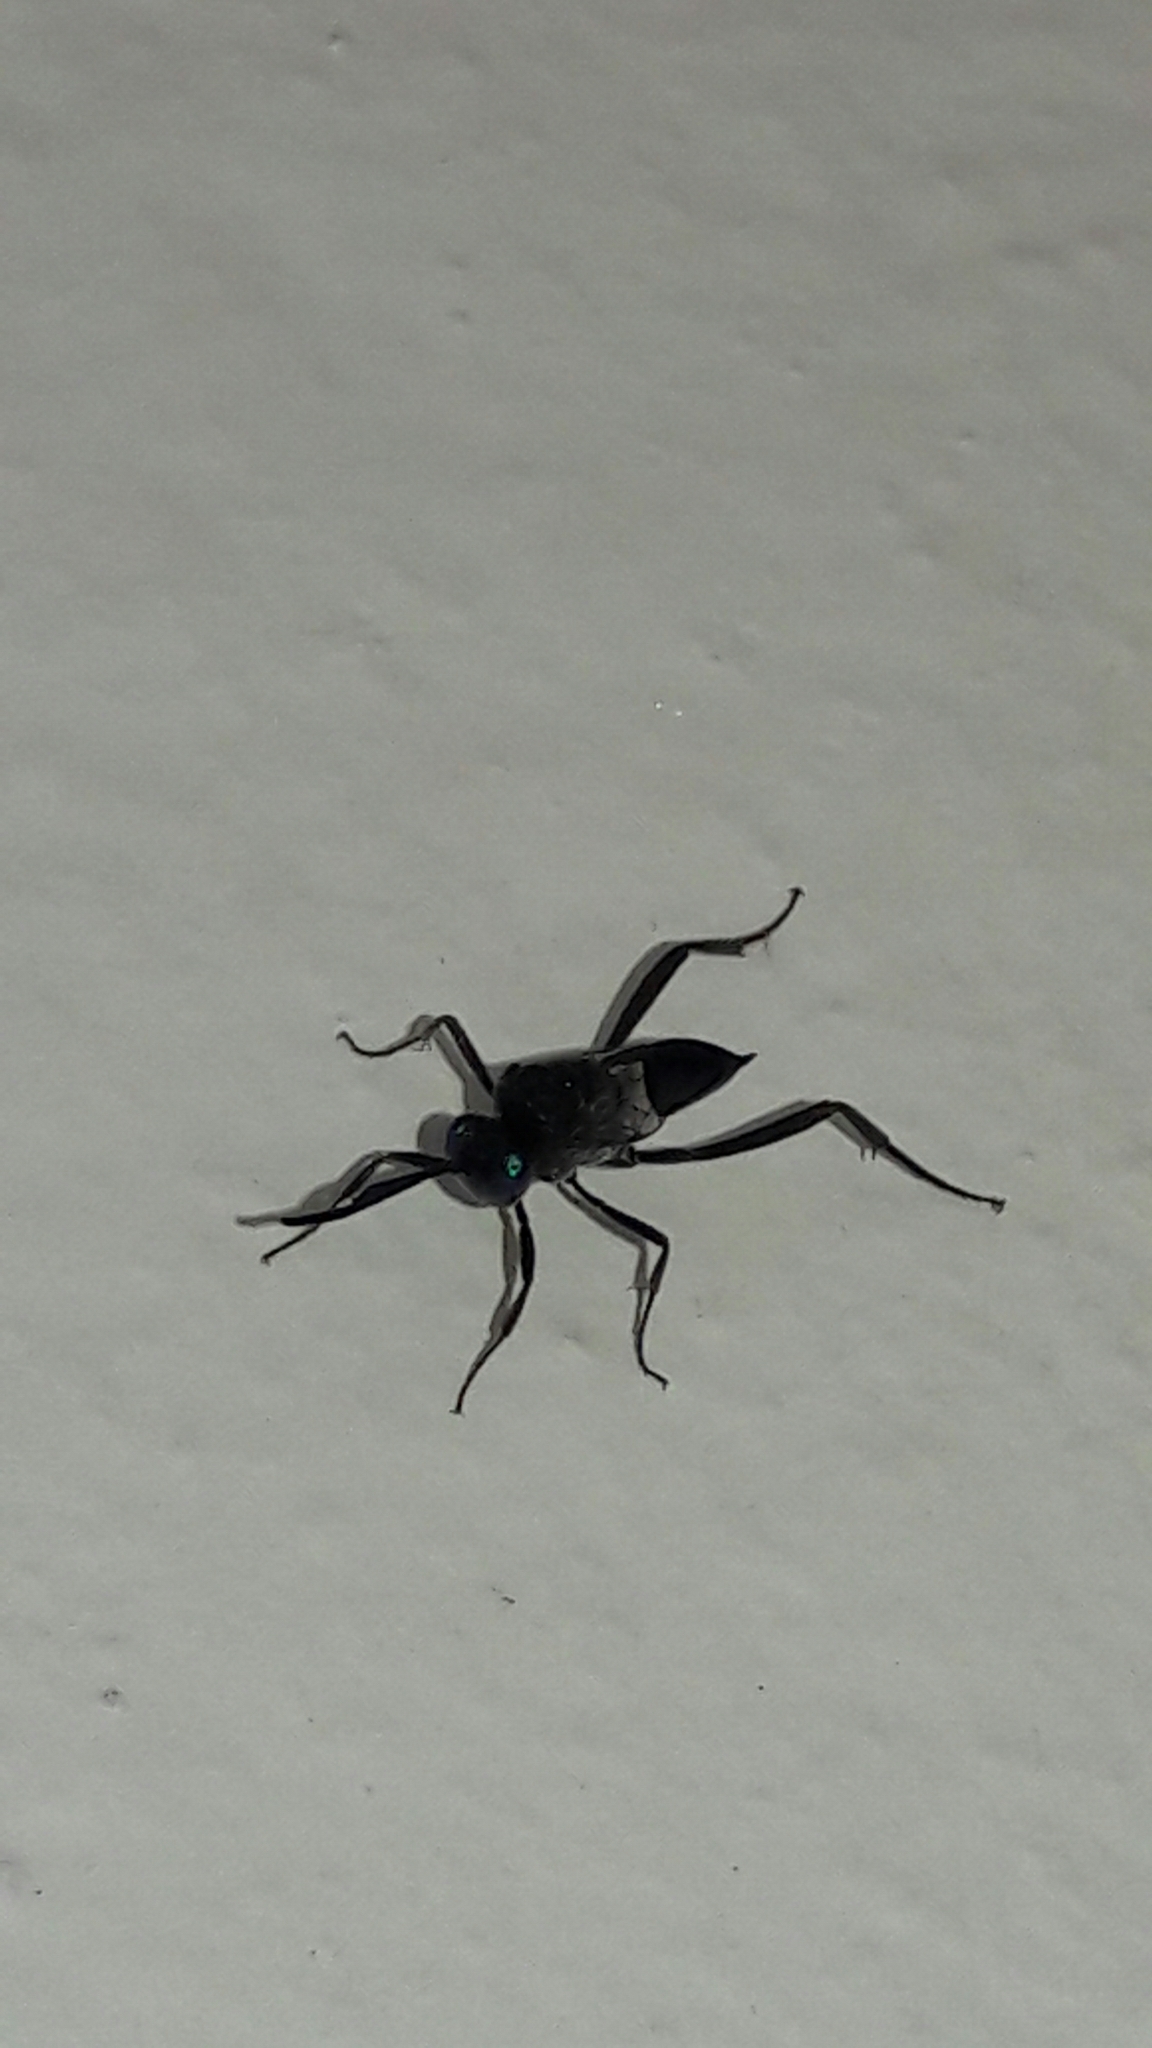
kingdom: Animalia
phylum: Arthropoda
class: Insecta
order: Hymenoptera
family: Evaniidae
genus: Evania
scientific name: Evania appendigaster
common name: Ensign wasp
